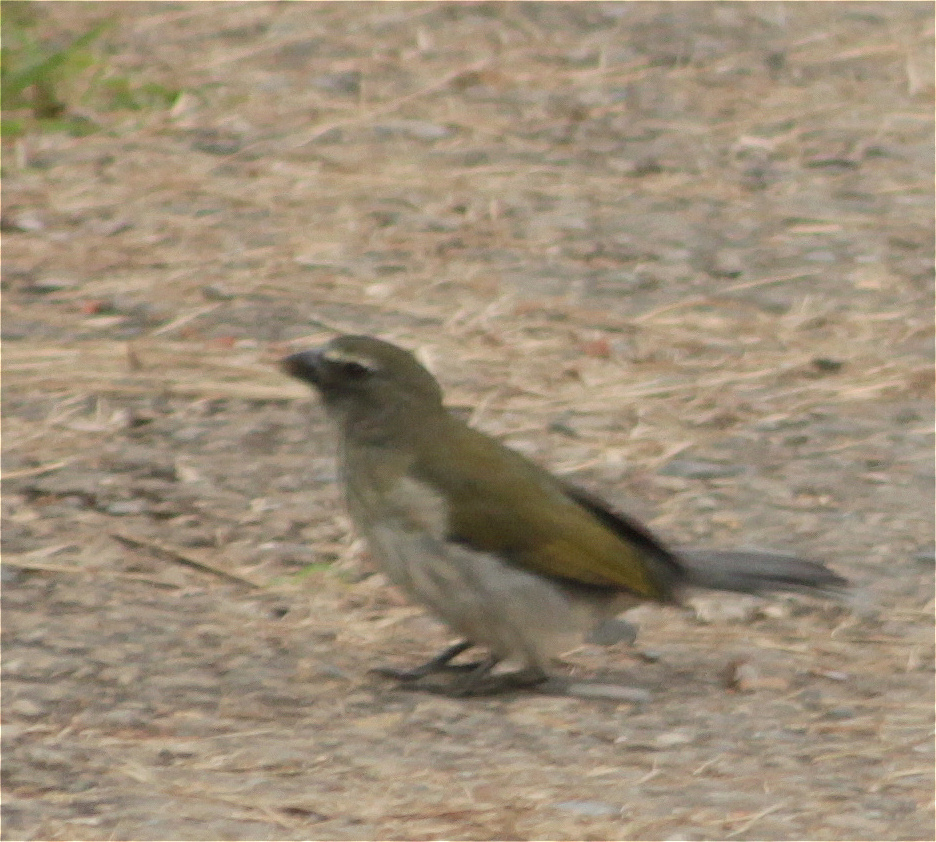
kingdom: Animalia
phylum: Chordata
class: Aves
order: Passeriformes
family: Thraupidae
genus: Saltator
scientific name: Saltator striatipectus
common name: Streaked saltator
